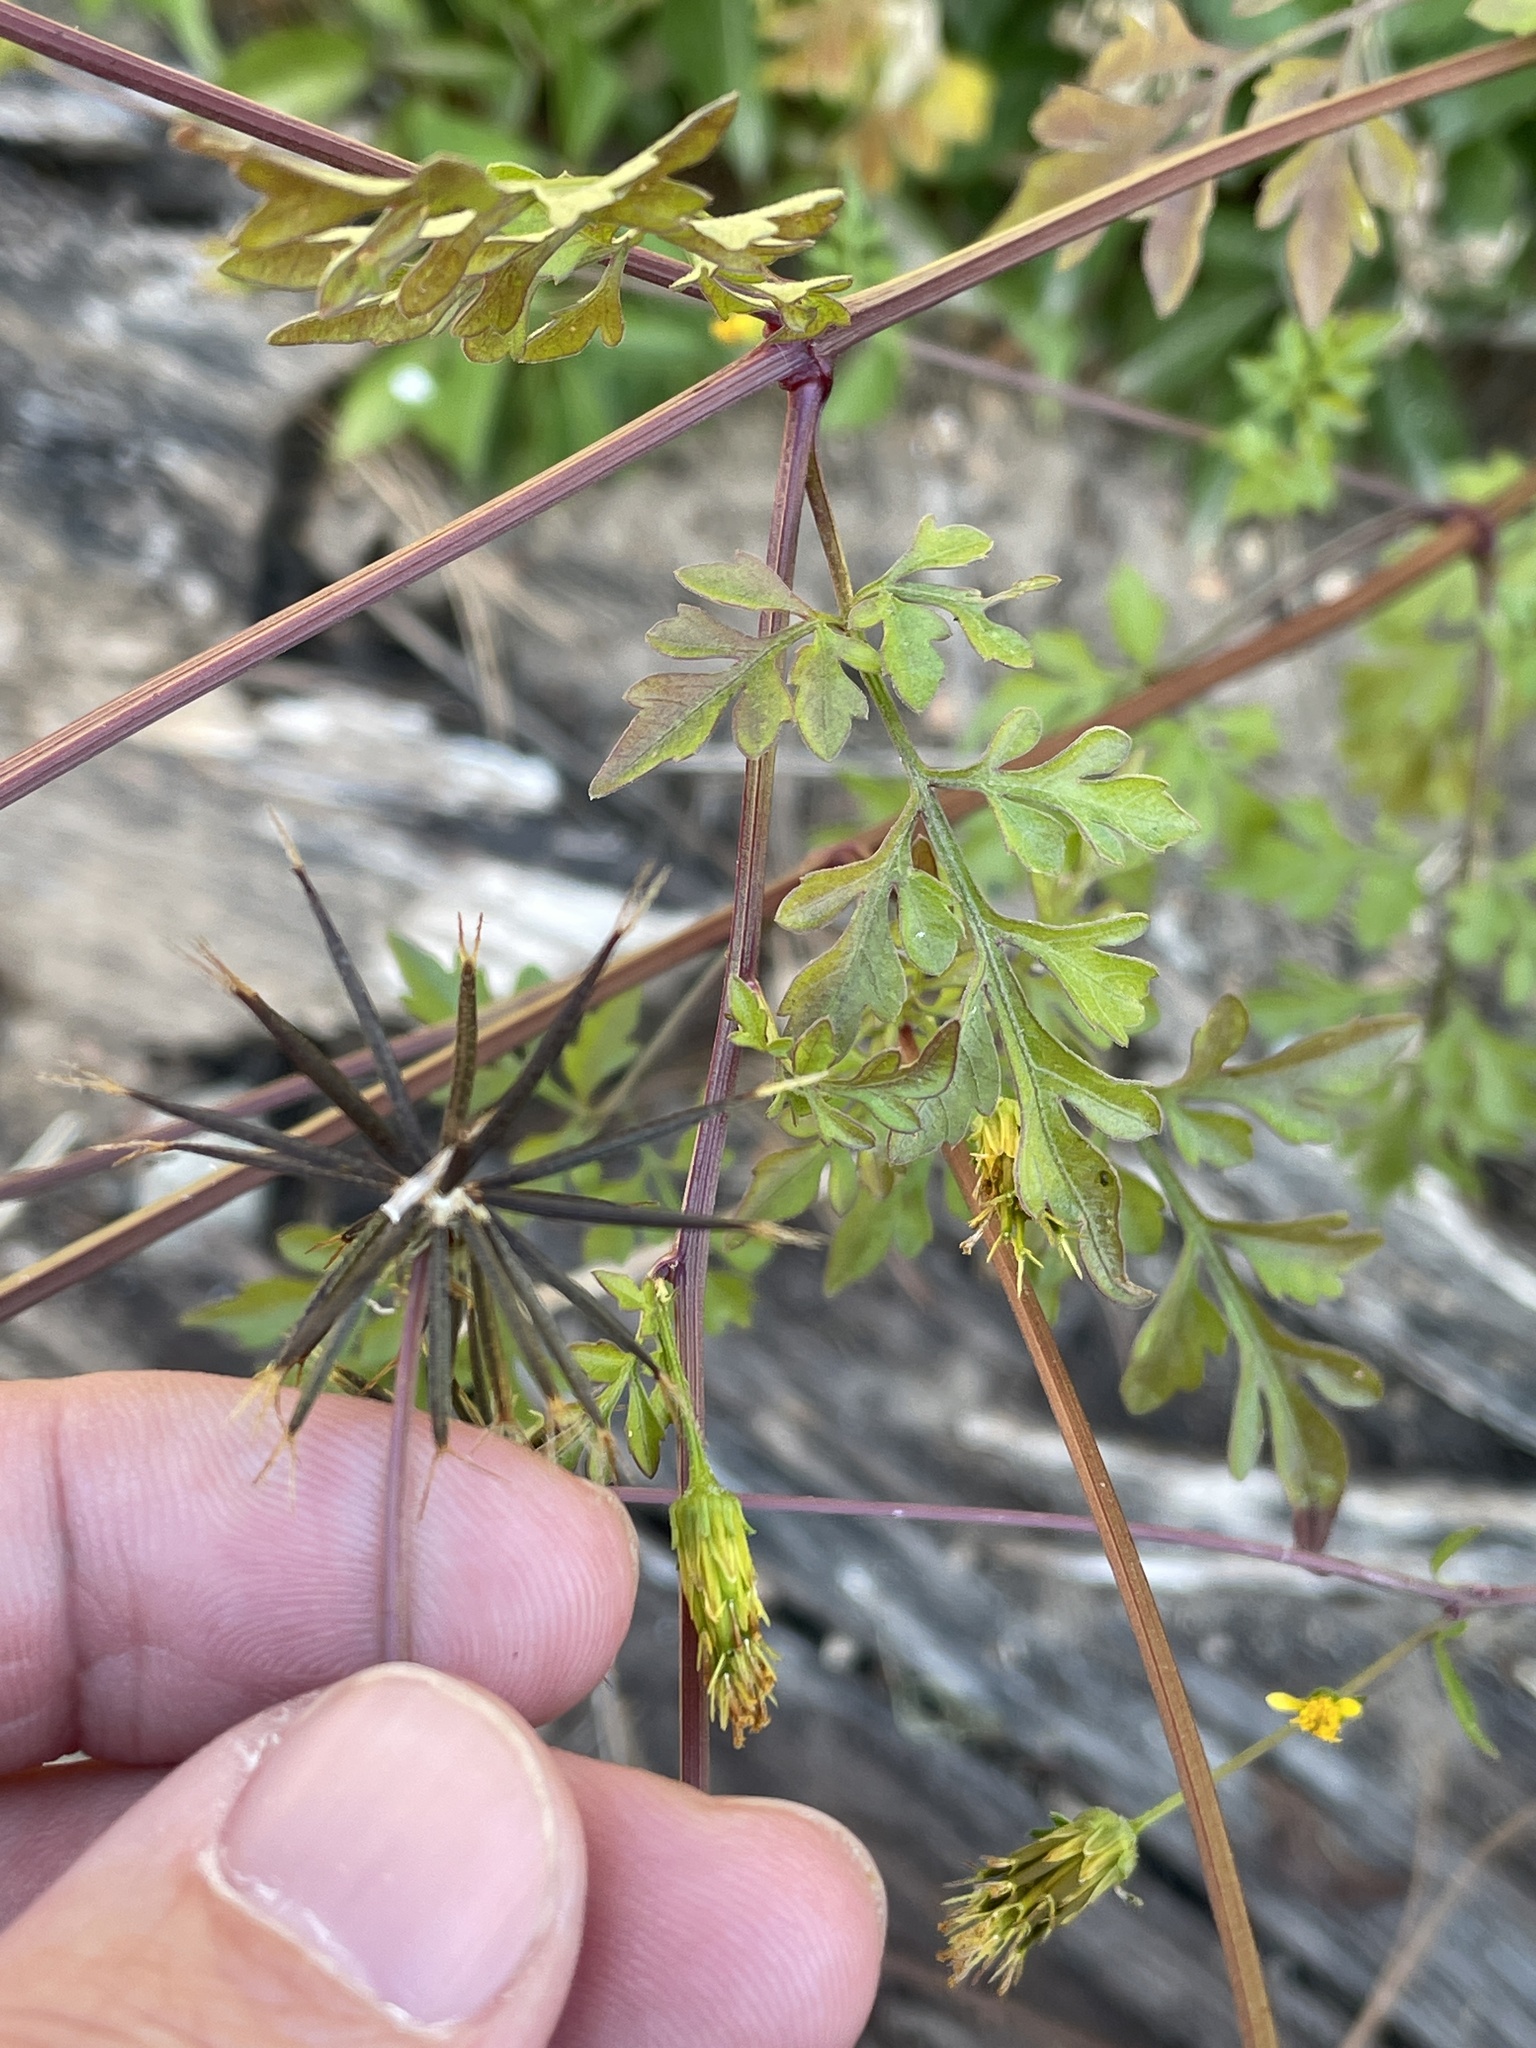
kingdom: Plantae
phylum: Tracheophyta
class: Magnoliopsida
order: Asterales
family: Asteraceae
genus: Bidens
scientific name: Bidens bipinnata
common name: Spanish-needles
